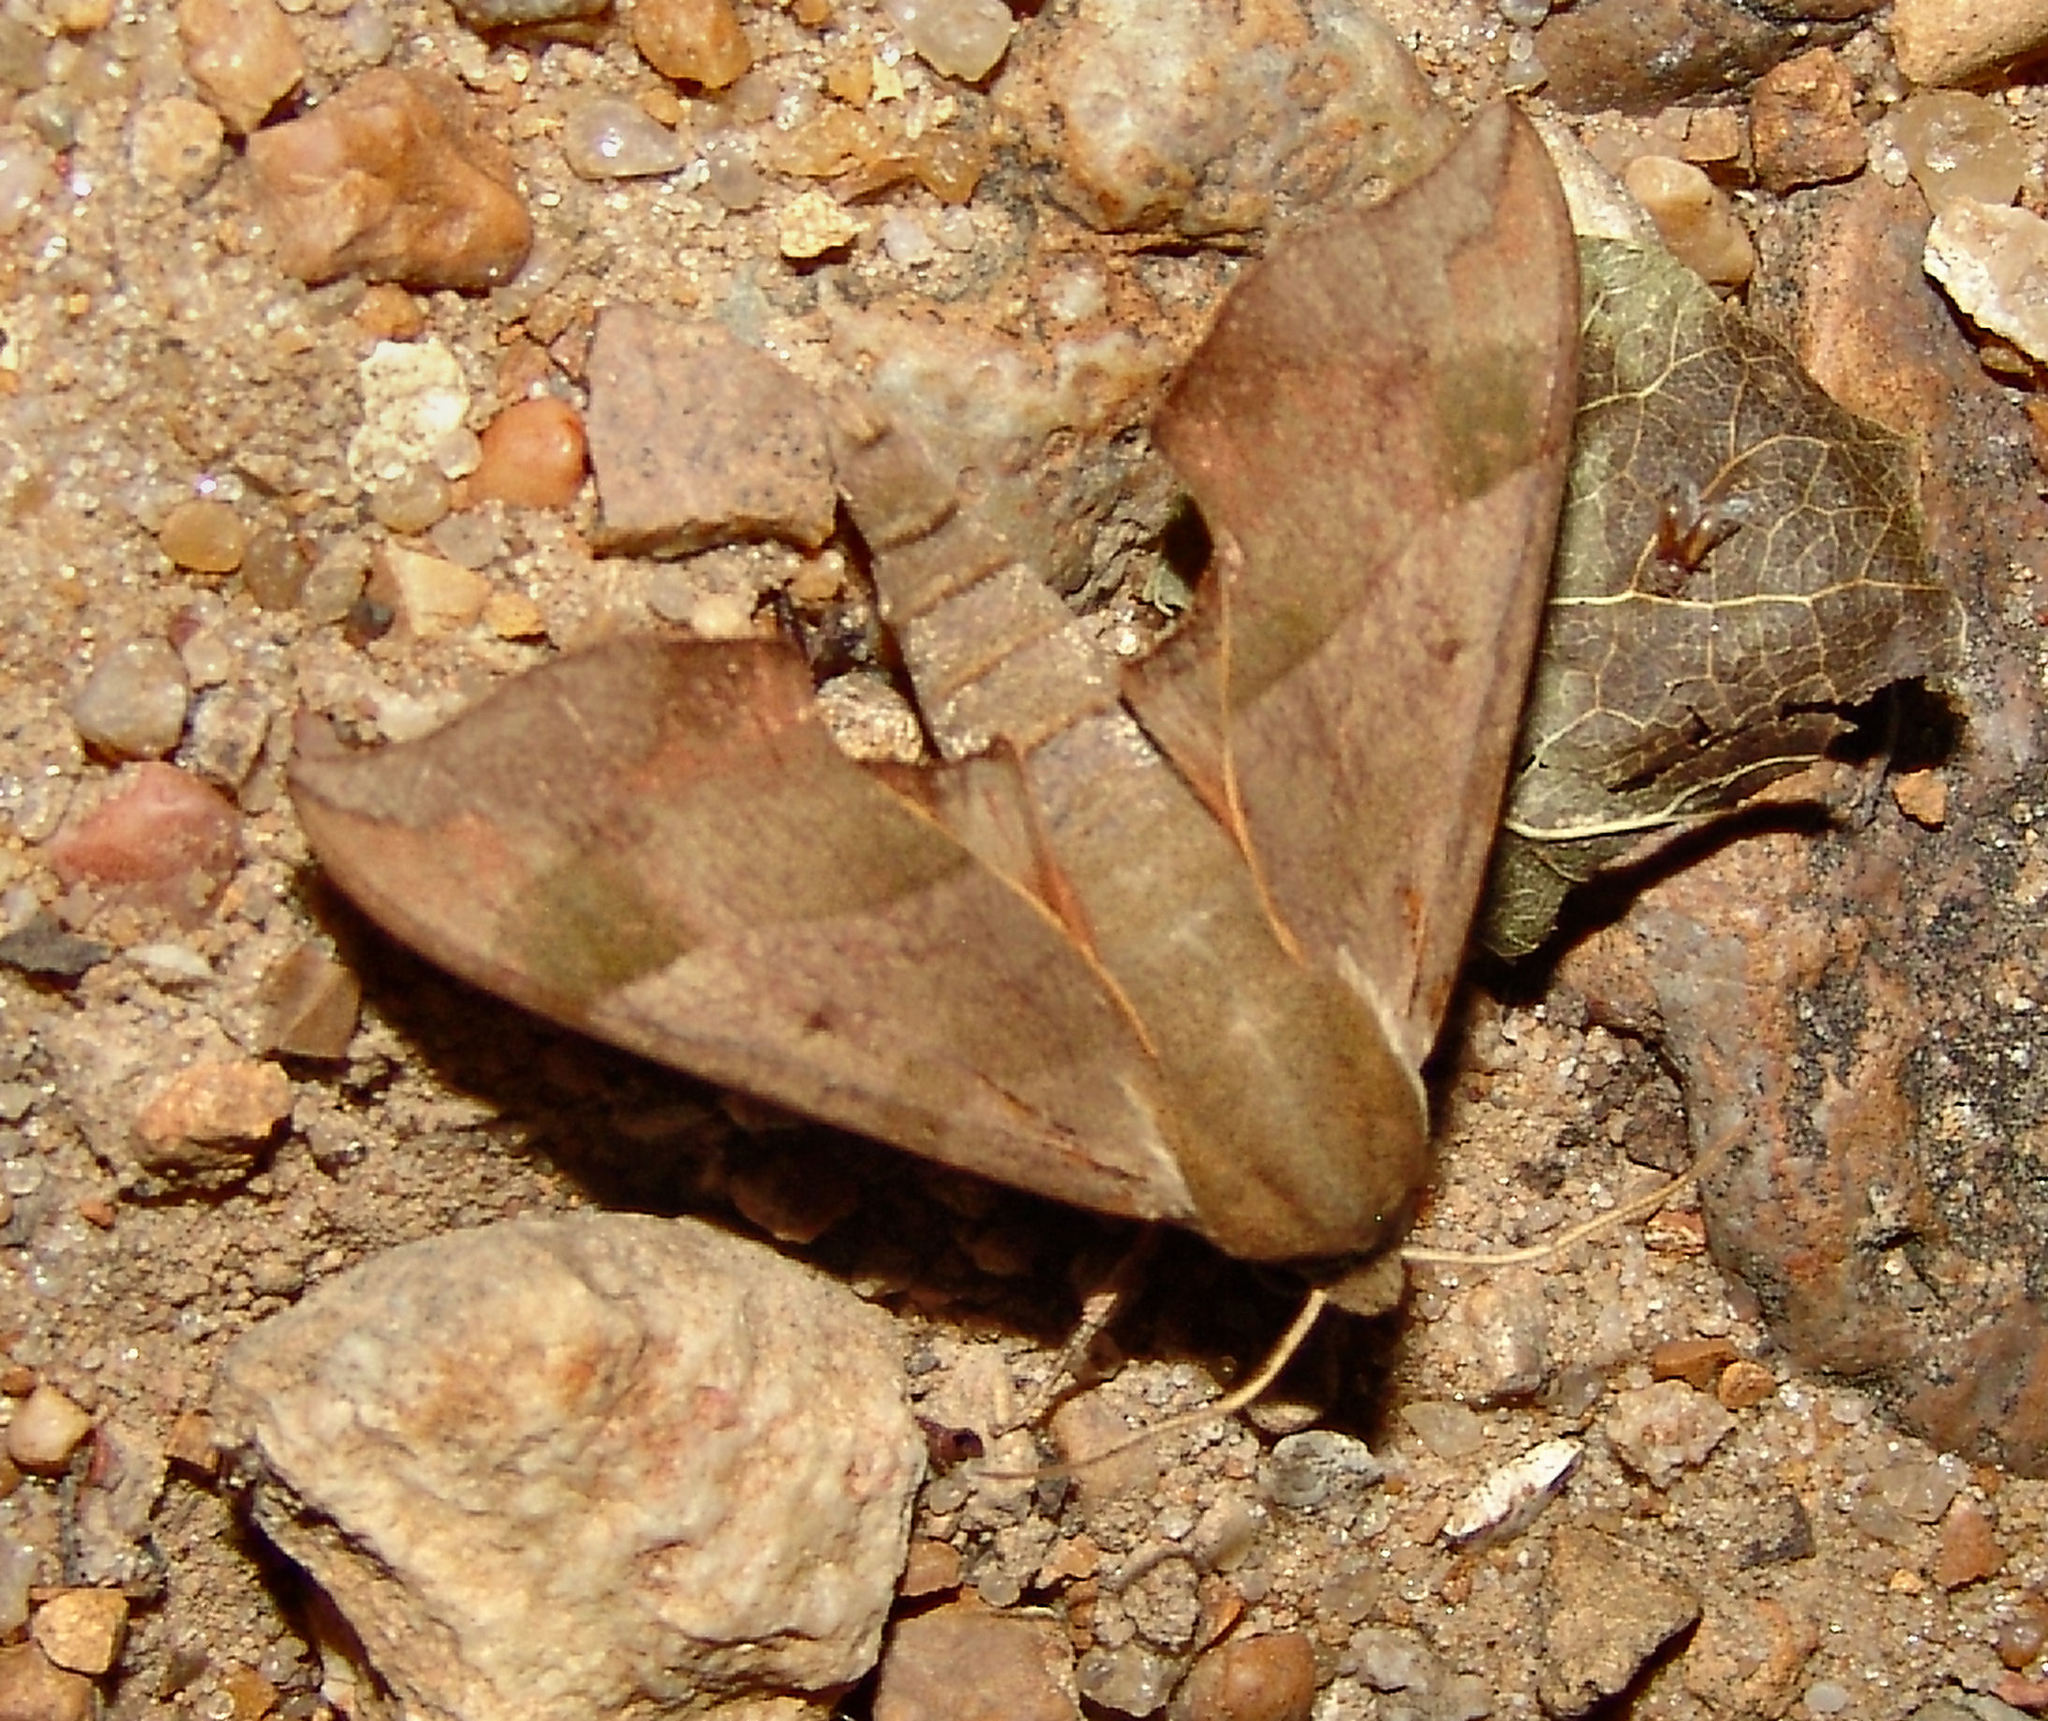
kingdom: Animalia
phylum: Arthropoda
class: Insecta
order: Lepidoptera
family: Sphingidae
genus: Darapsa
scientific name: Darapsa myron
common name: Hog sphinx
